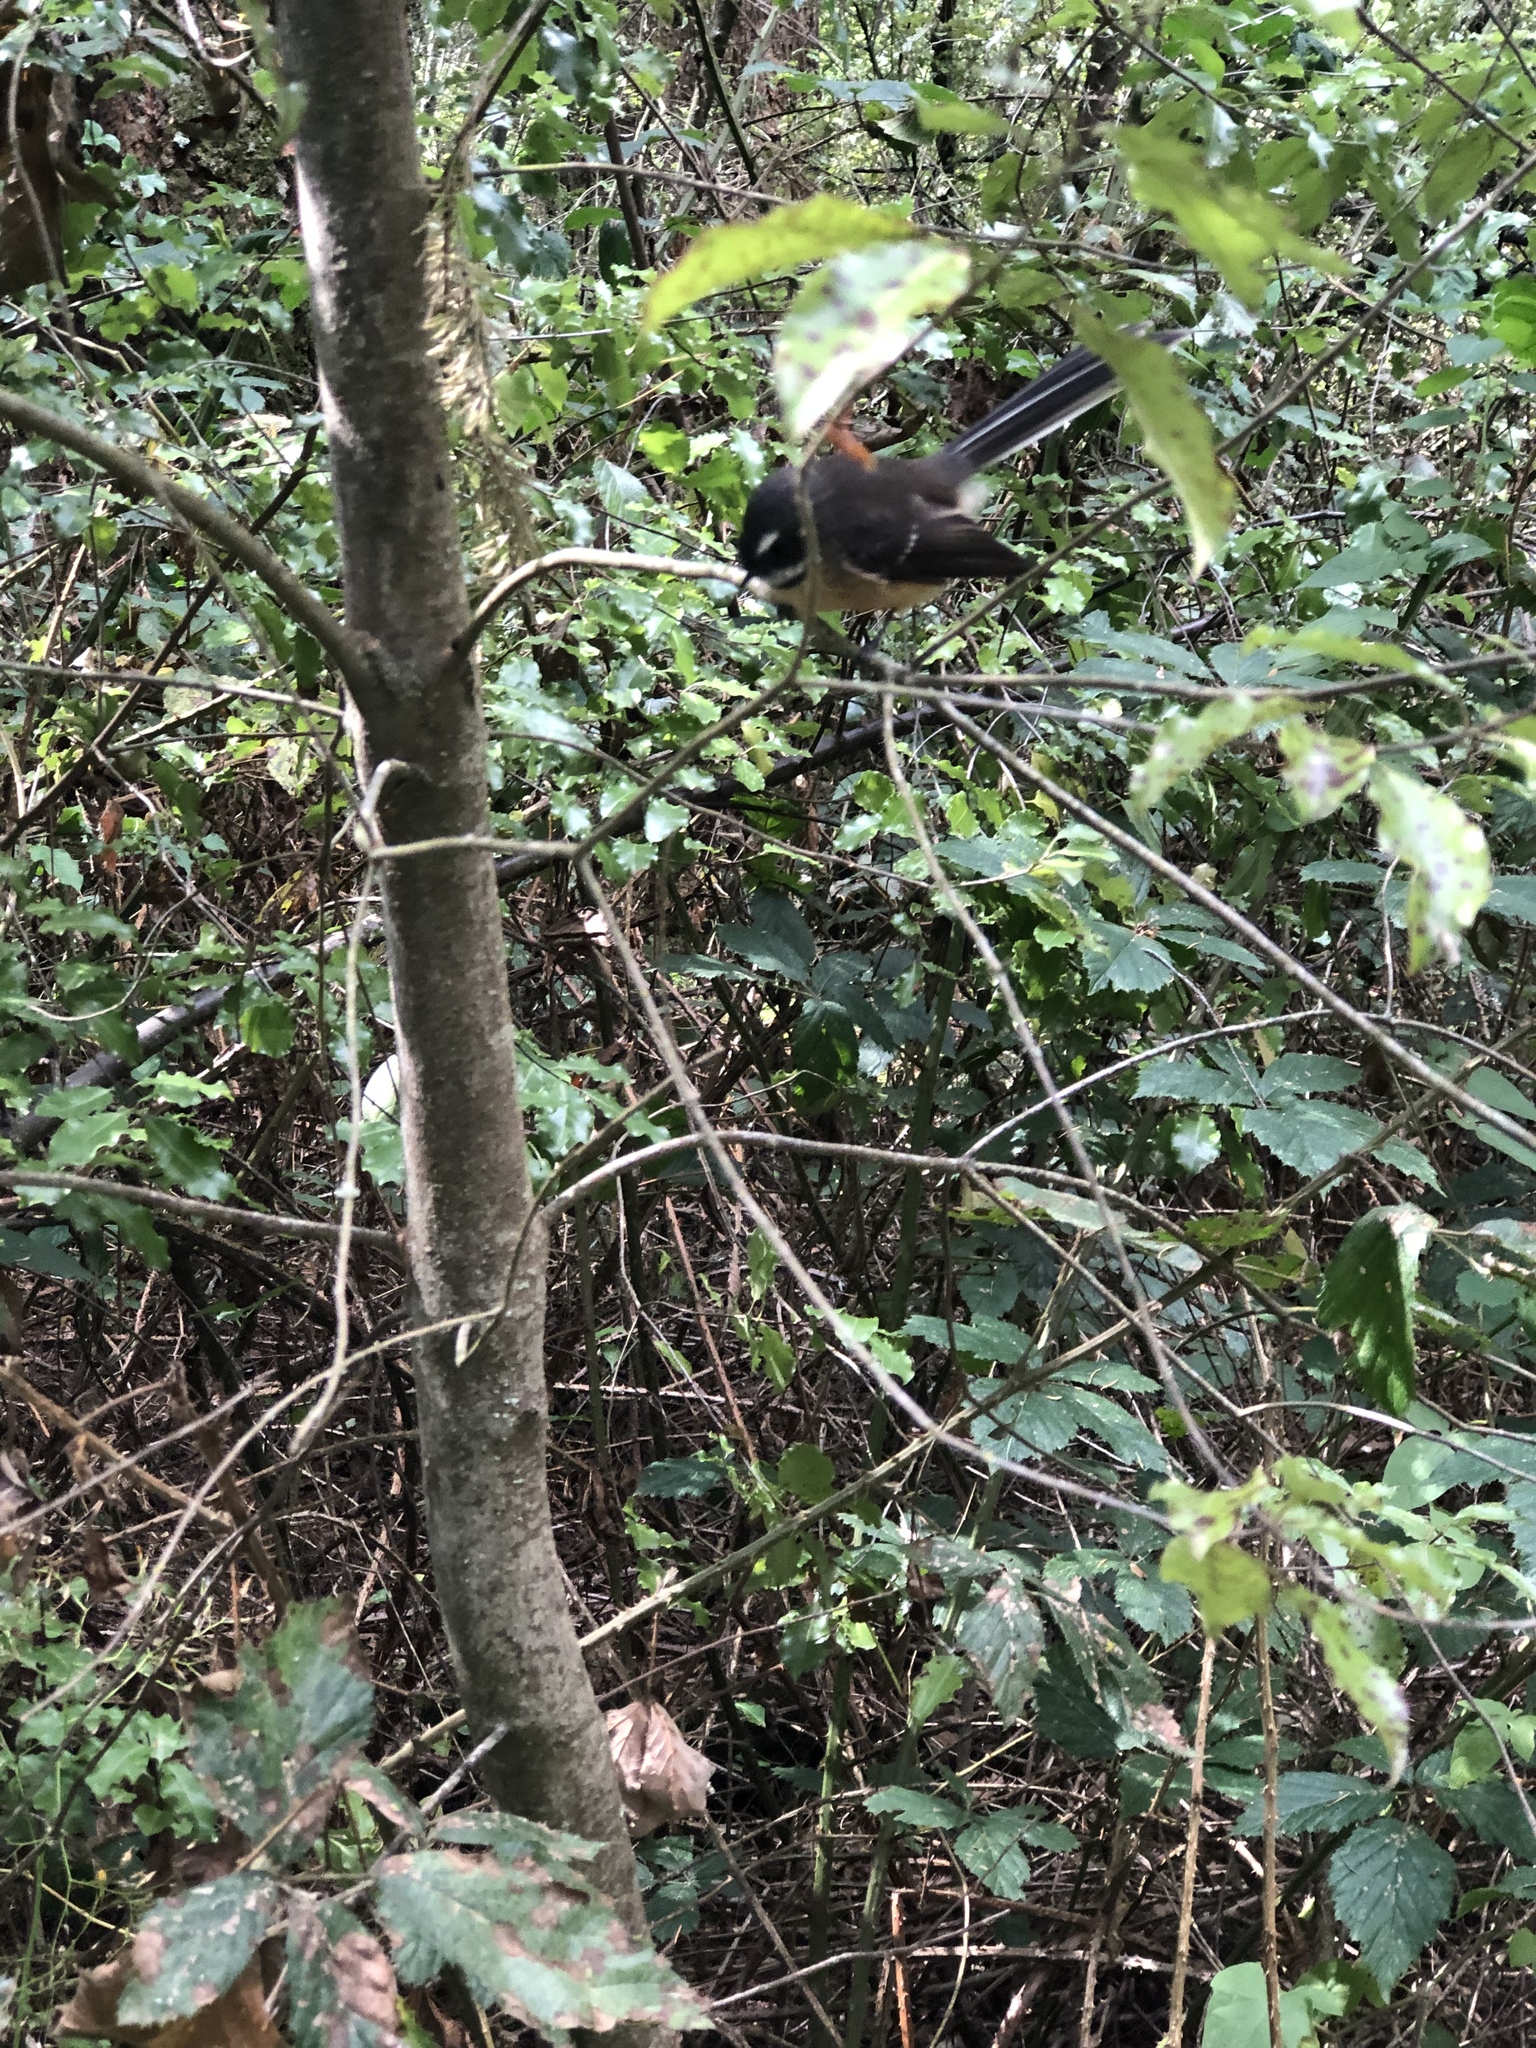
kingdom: Animalia
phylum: Chordata
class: Aves
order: Passeriformes
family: Rhipiduridae
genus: Rhipidura
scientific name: Rhipidura fuliginosa
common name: New zealand fantail
